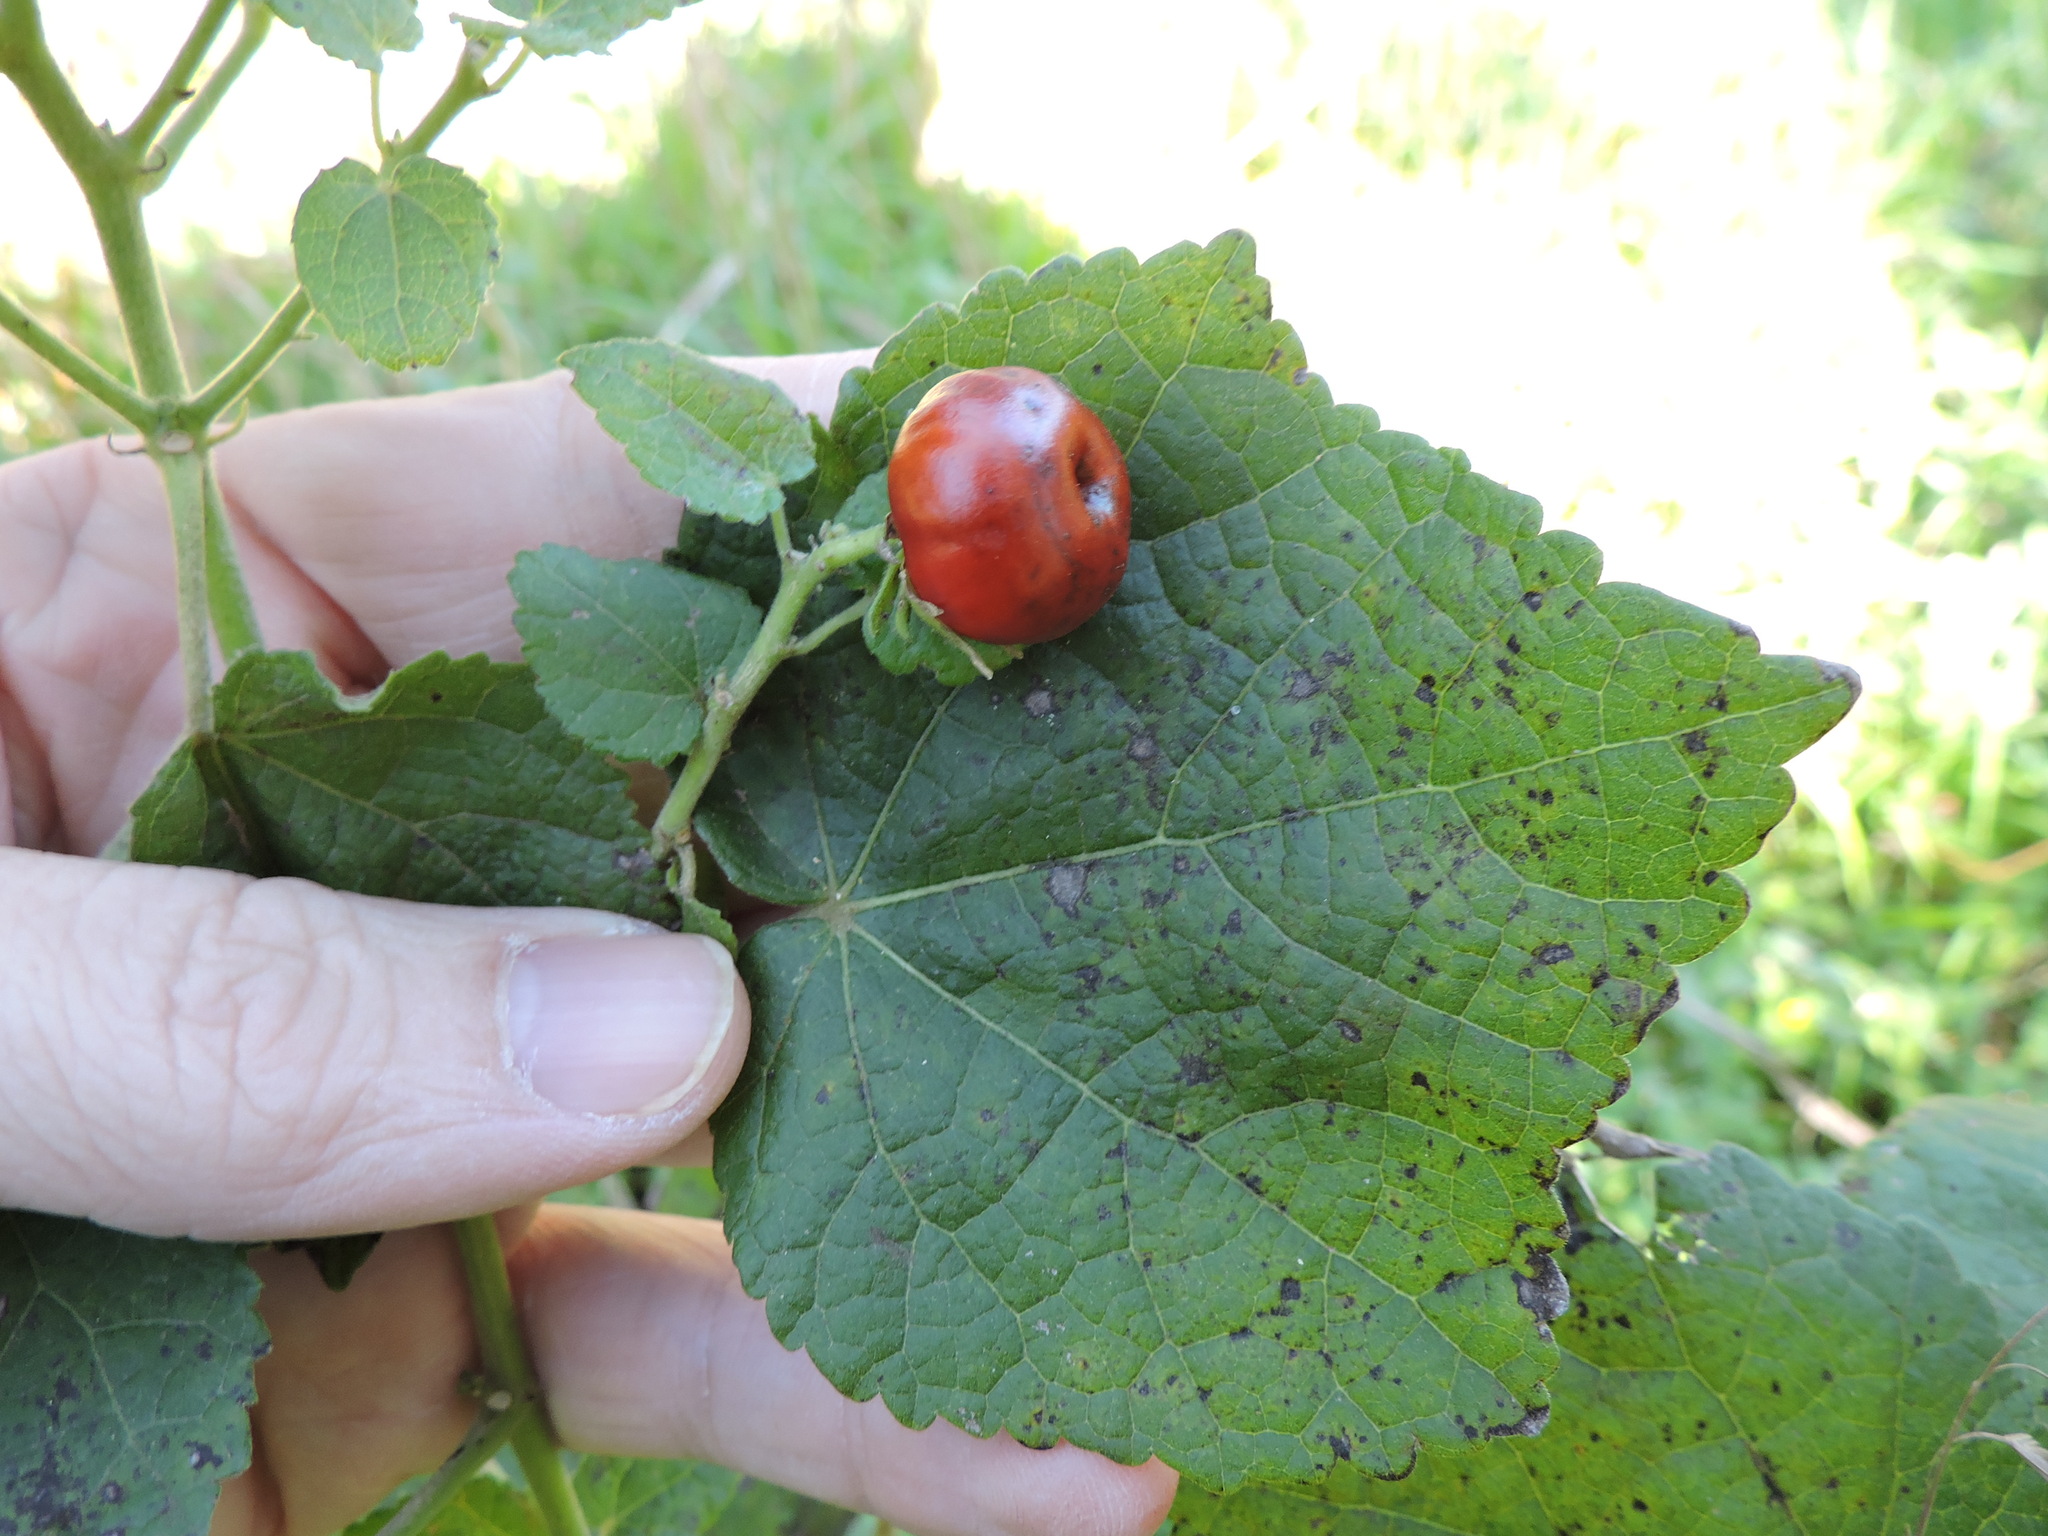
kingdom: Plantae
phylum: Tracheophyta
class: Magnoliopsida
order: Malvales
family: Malvaceae
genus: Malvaviscus
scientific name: Malvaviscus arboreus
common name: Wax mallow
